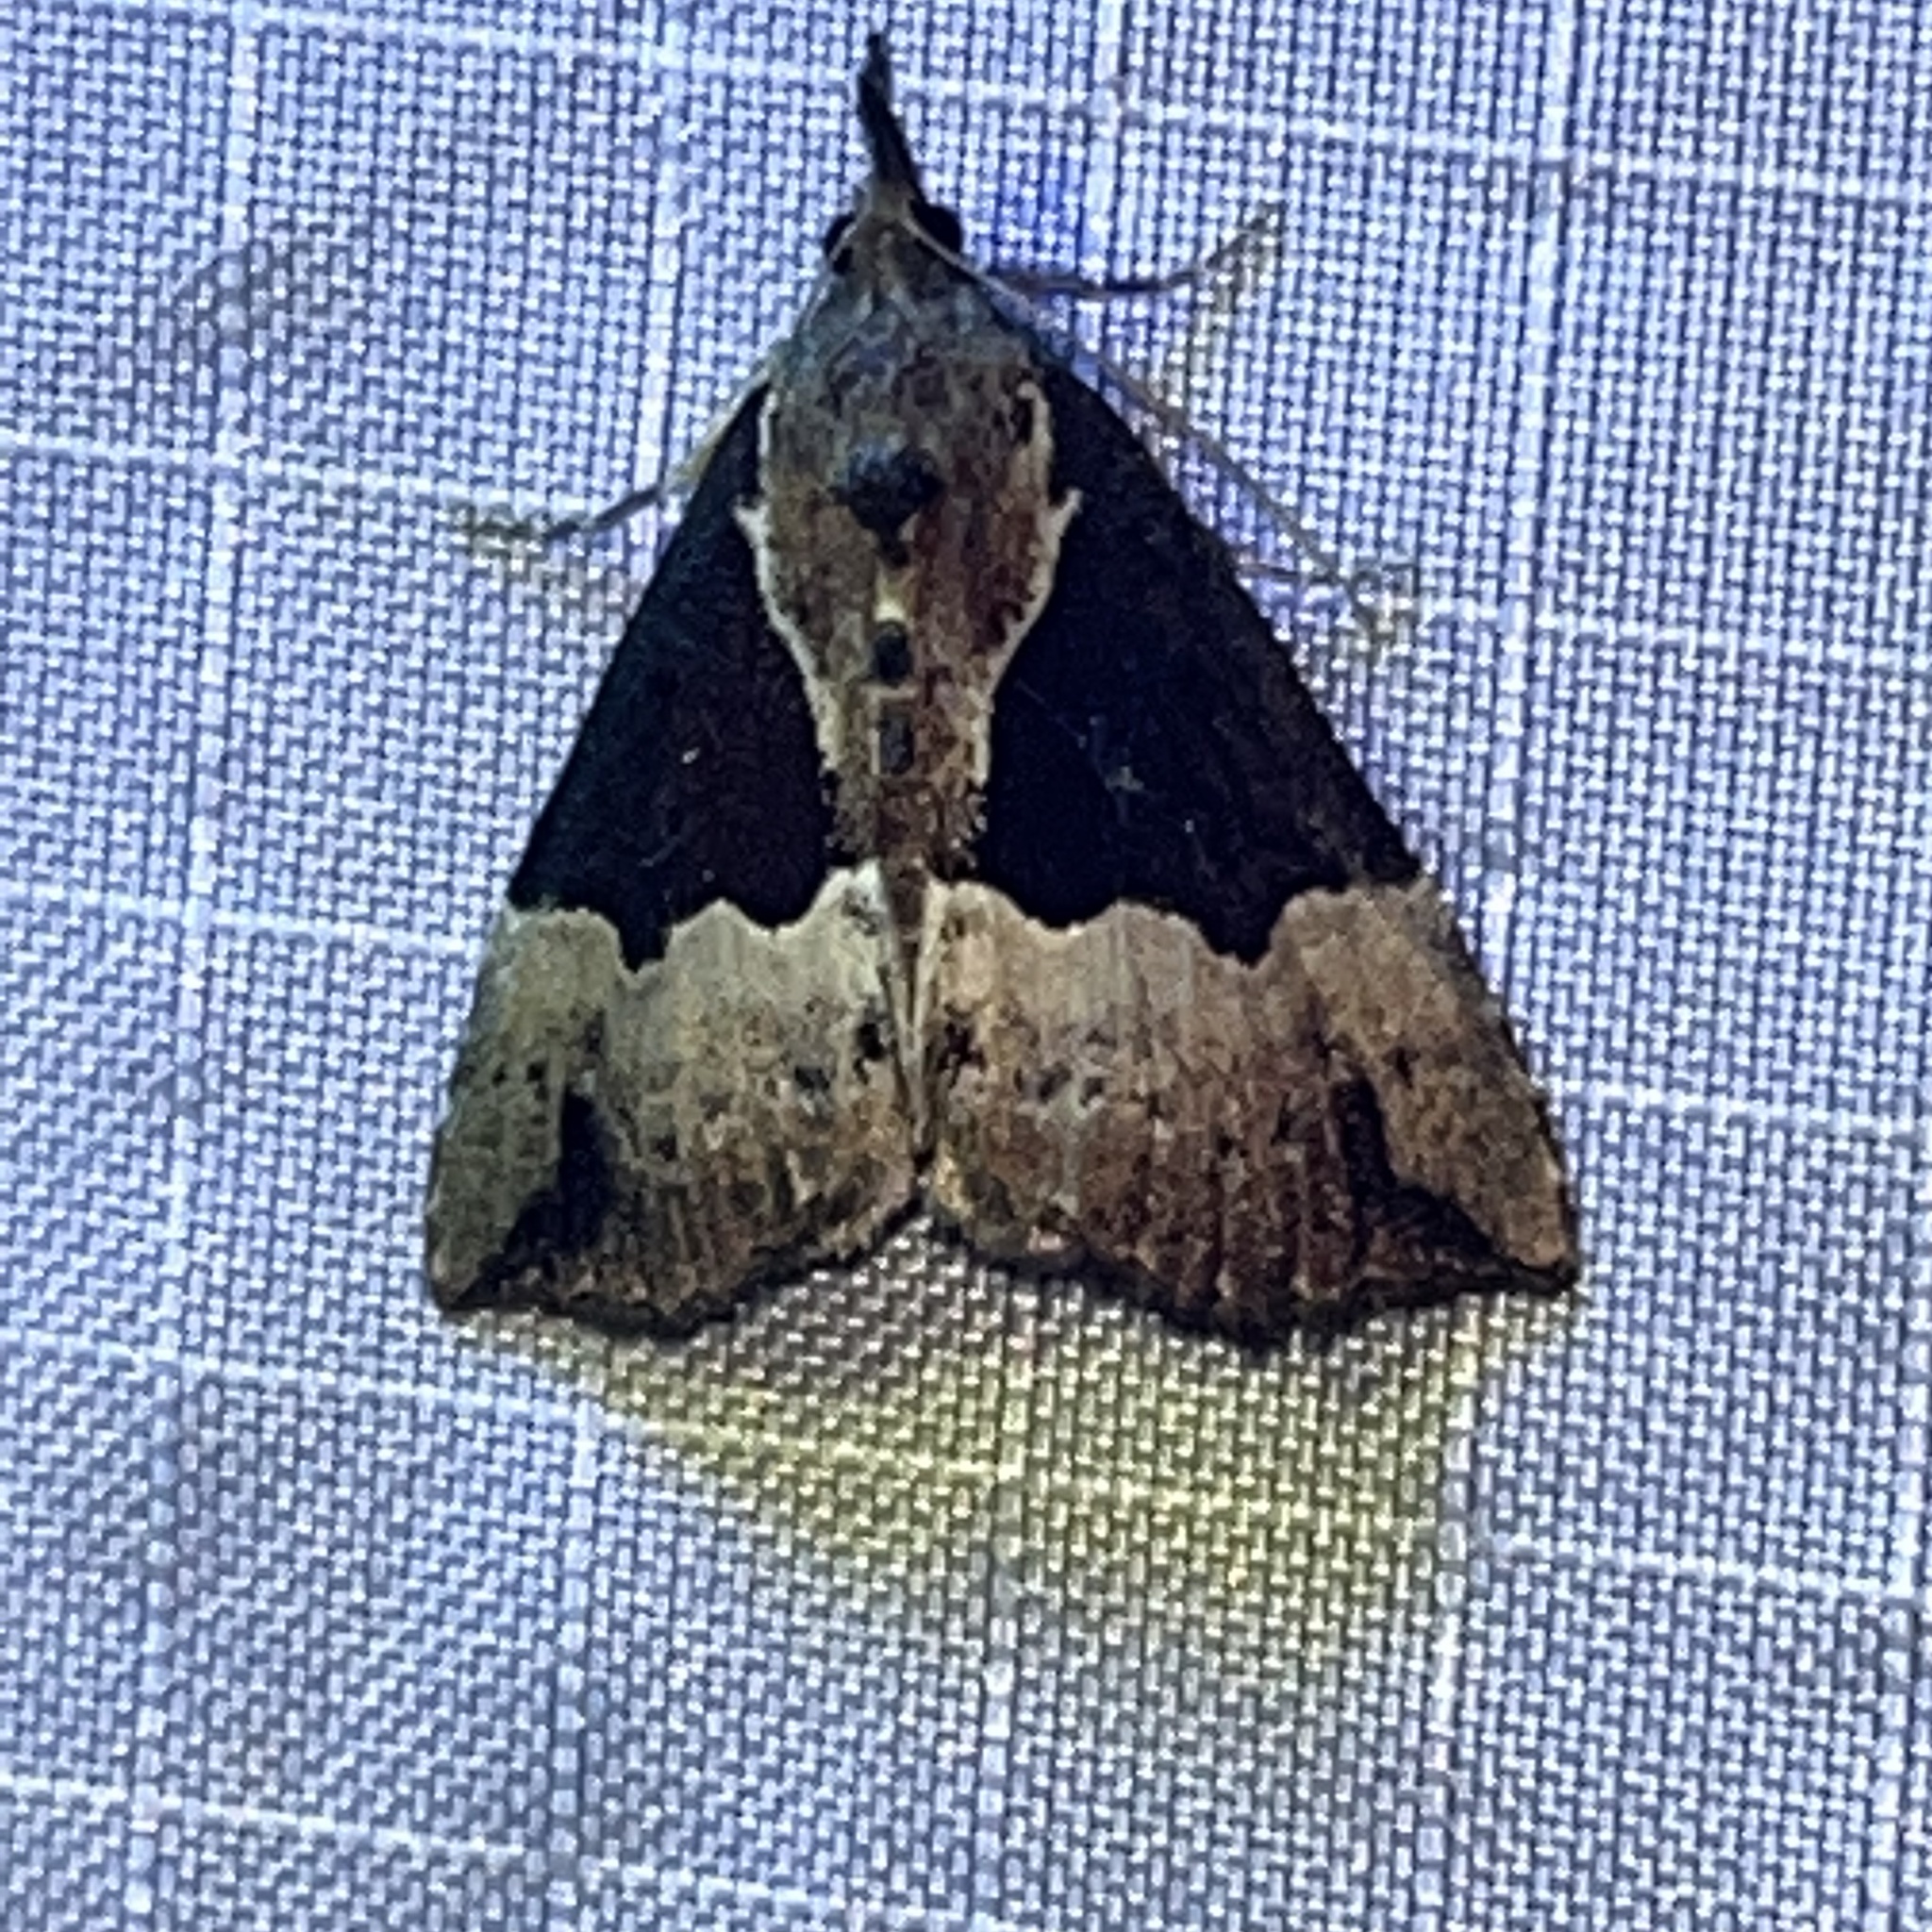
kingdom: Animalia
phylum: Arthropoda
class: Insecta
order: Lepidoptera
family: Erebidae
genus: Hypena
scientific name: Hypena bijugalis
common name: Dimorphic bomolocha moth
